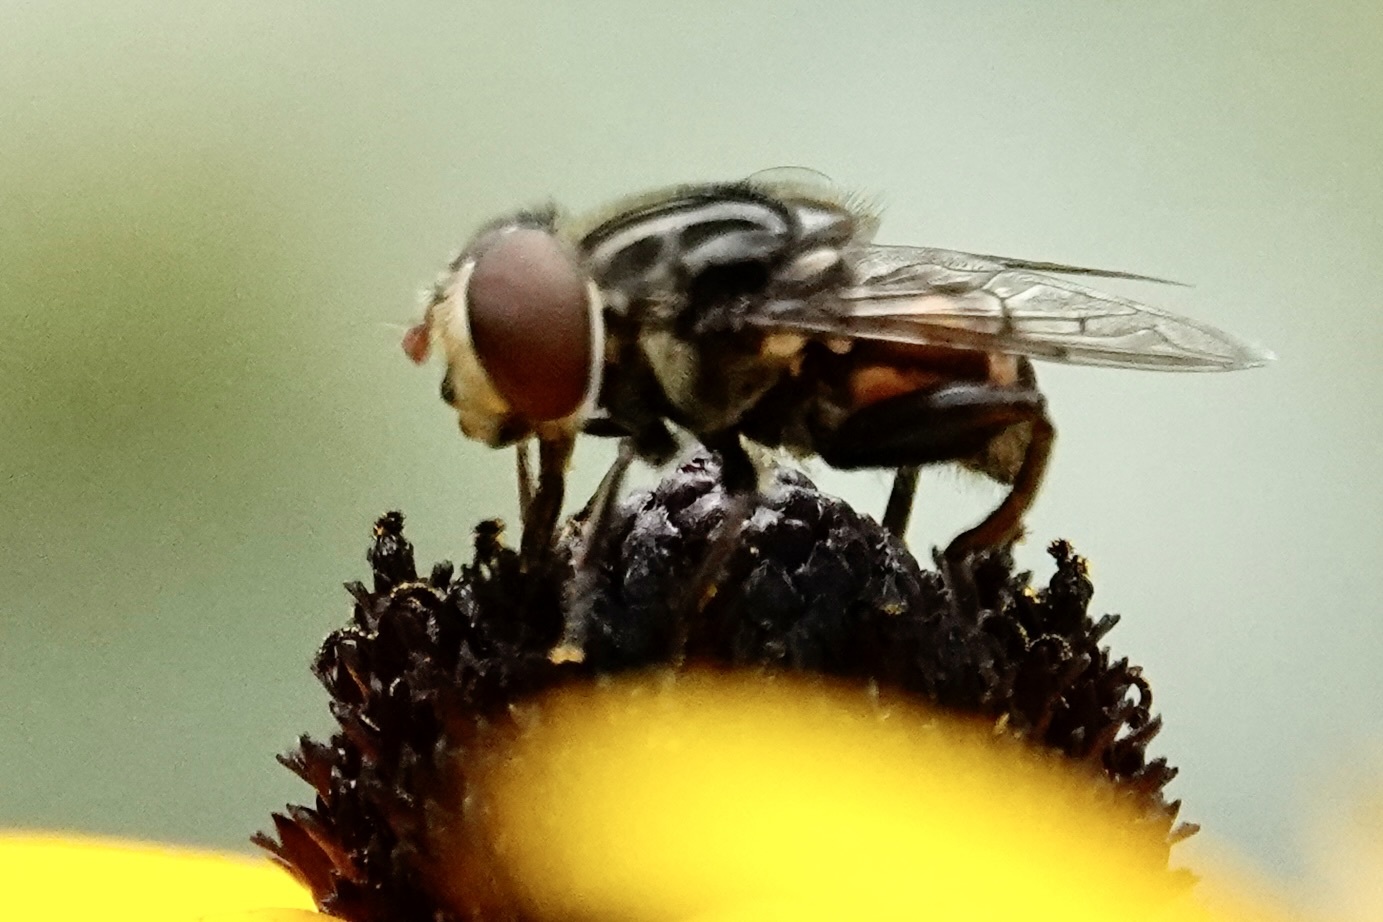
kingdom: Animalia
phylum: Arthropoda
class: Insecta
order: Diptera
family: Syrphidae
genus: Palpada
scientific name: Palpada furcata
